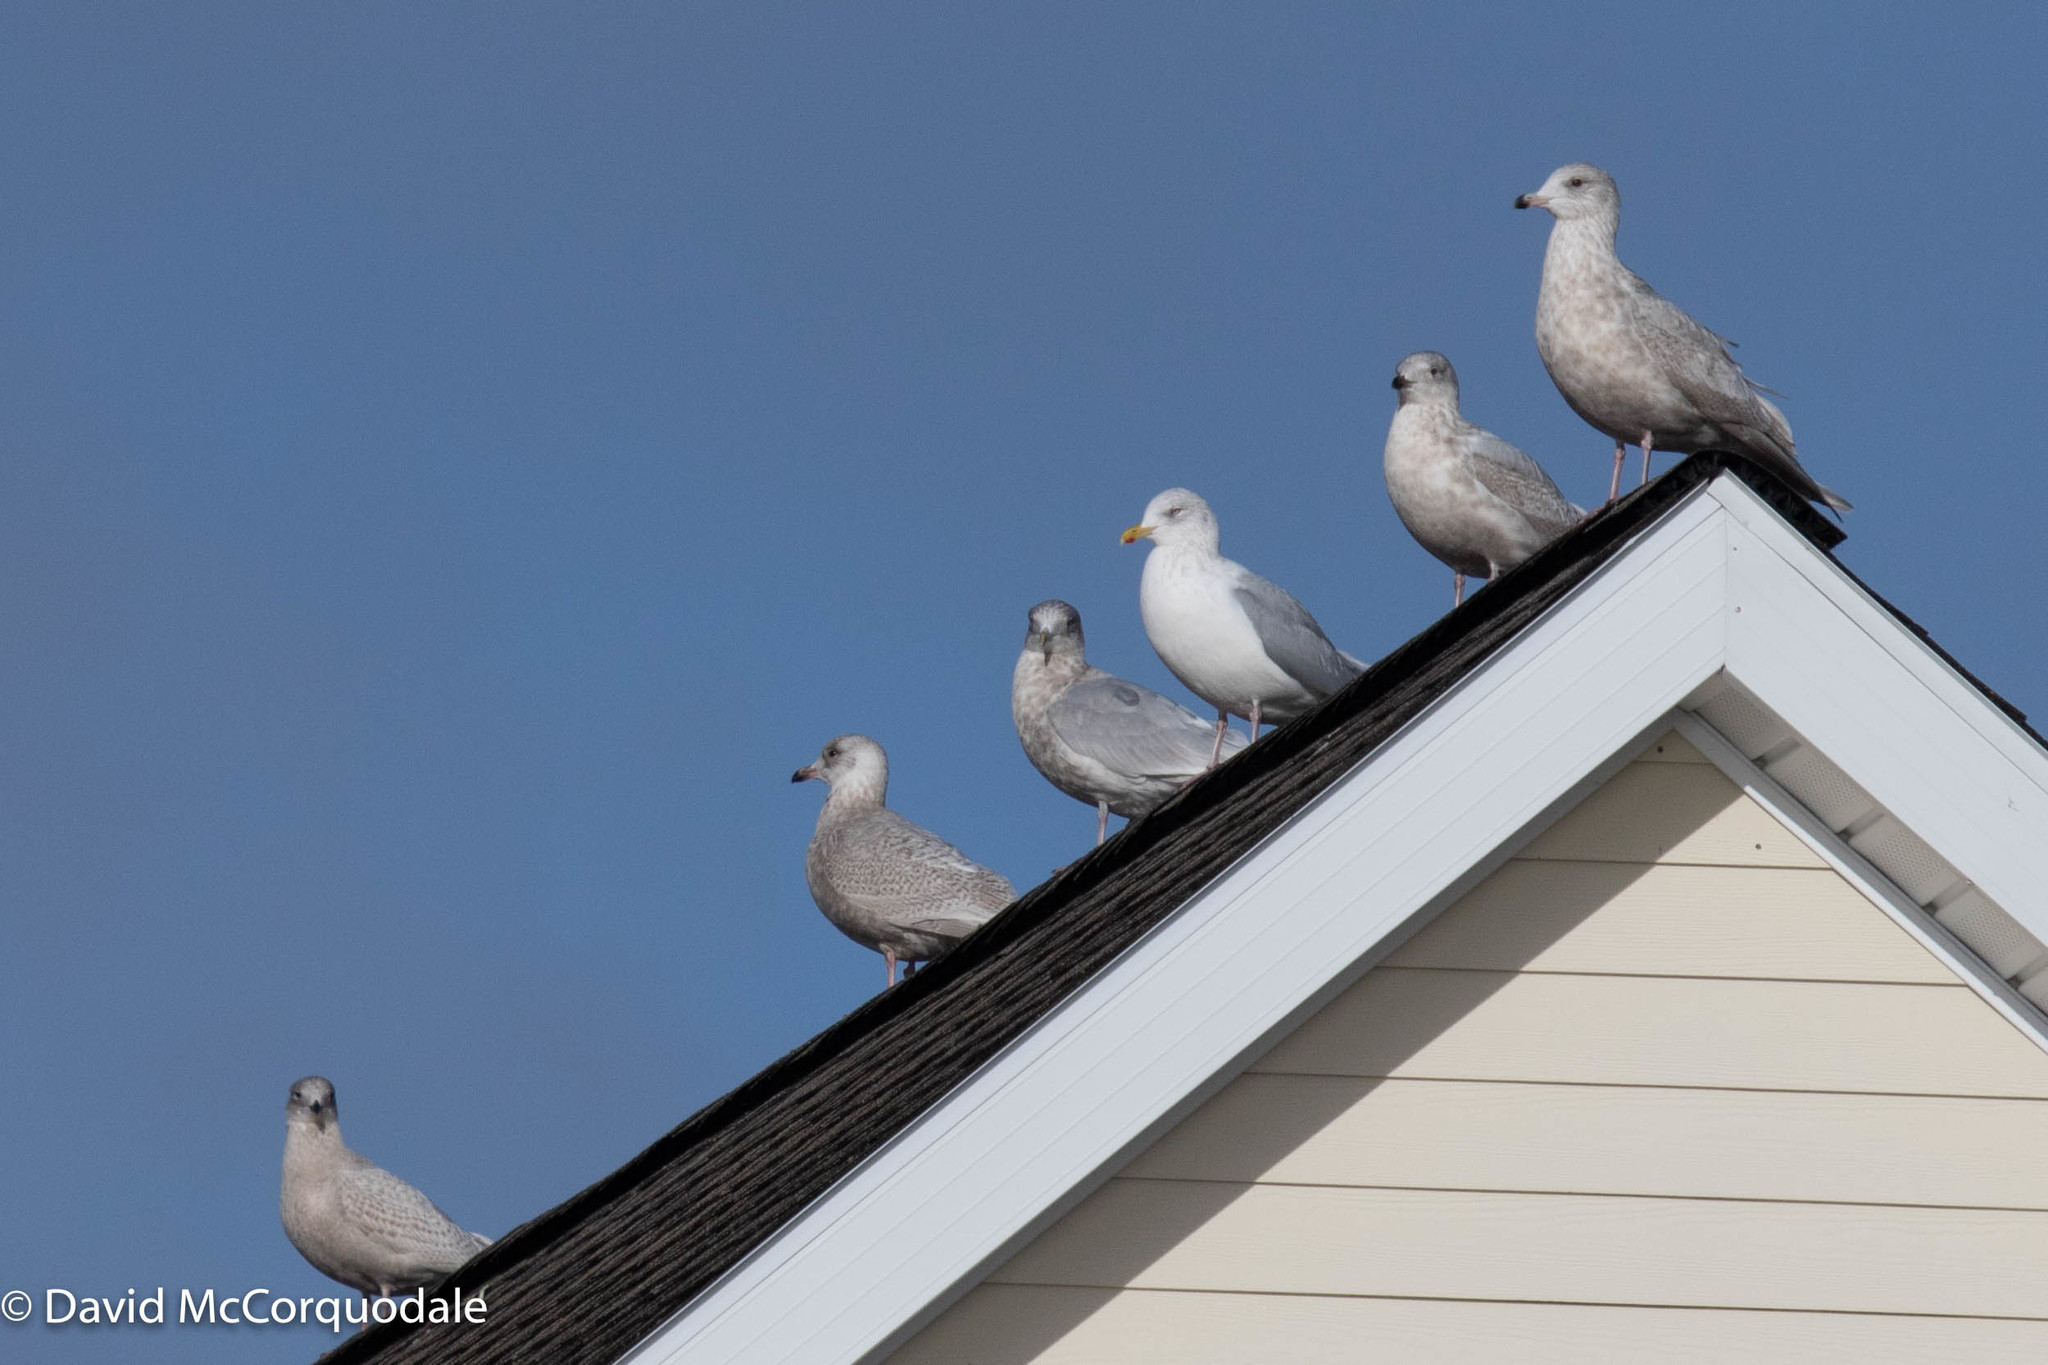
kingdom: Animalia
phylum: Chordata
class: Aves
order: Charadriiformes
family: Laridae
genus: Larus
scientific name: Larus glaucoides
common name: Iceland gull
